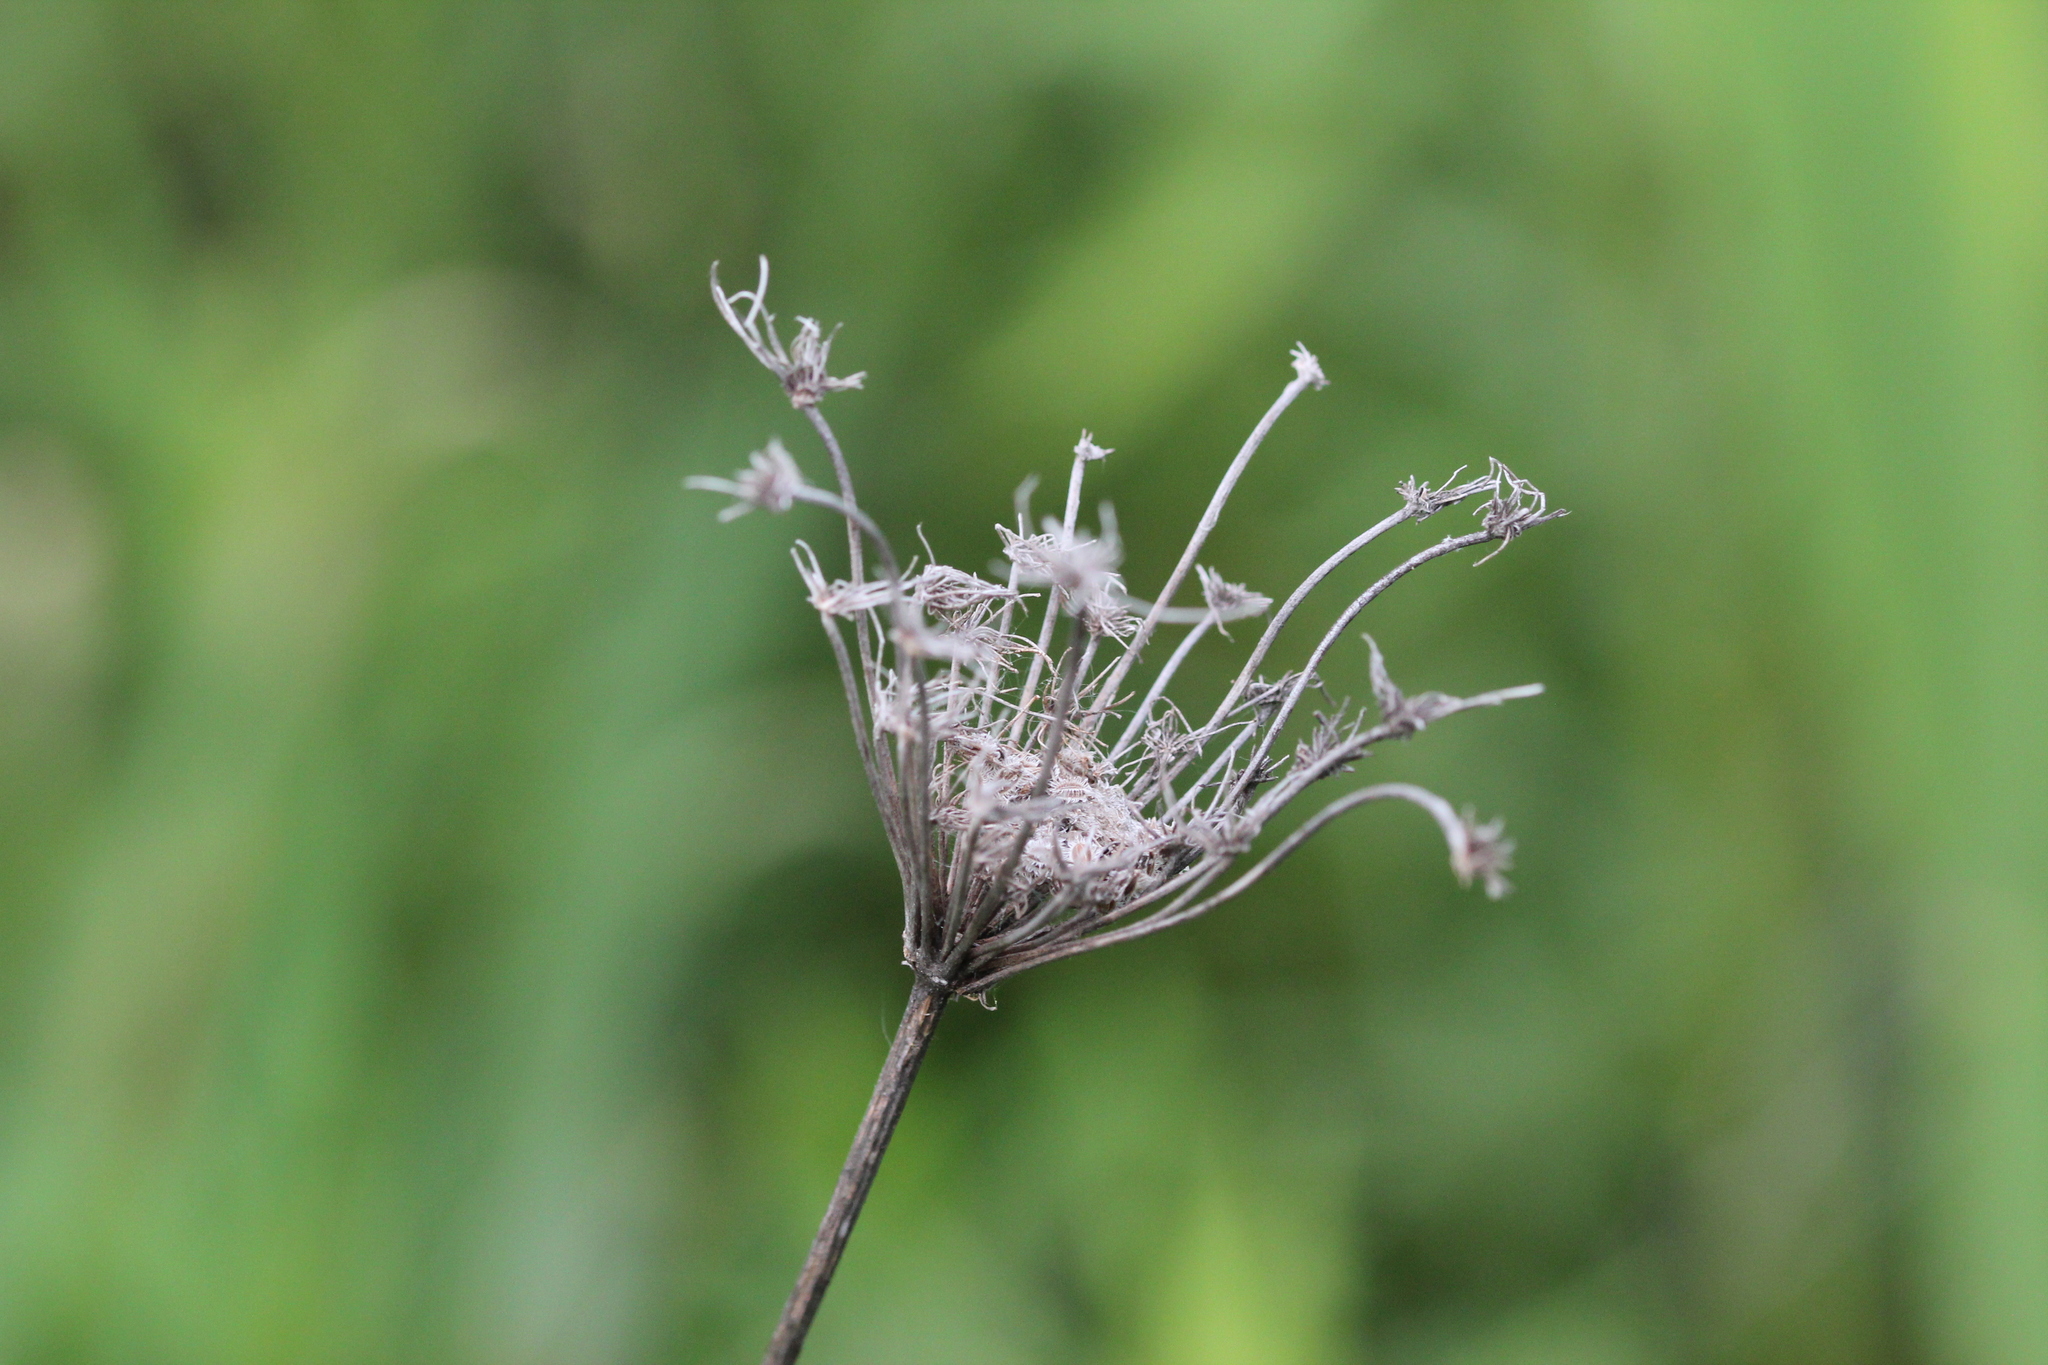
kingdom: Plantae
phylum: Tracheophyta
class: Magnoliopsida
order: Apiales
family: Apiaceae
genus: Daucus
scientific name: Daucus carota
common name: Wild carrot
